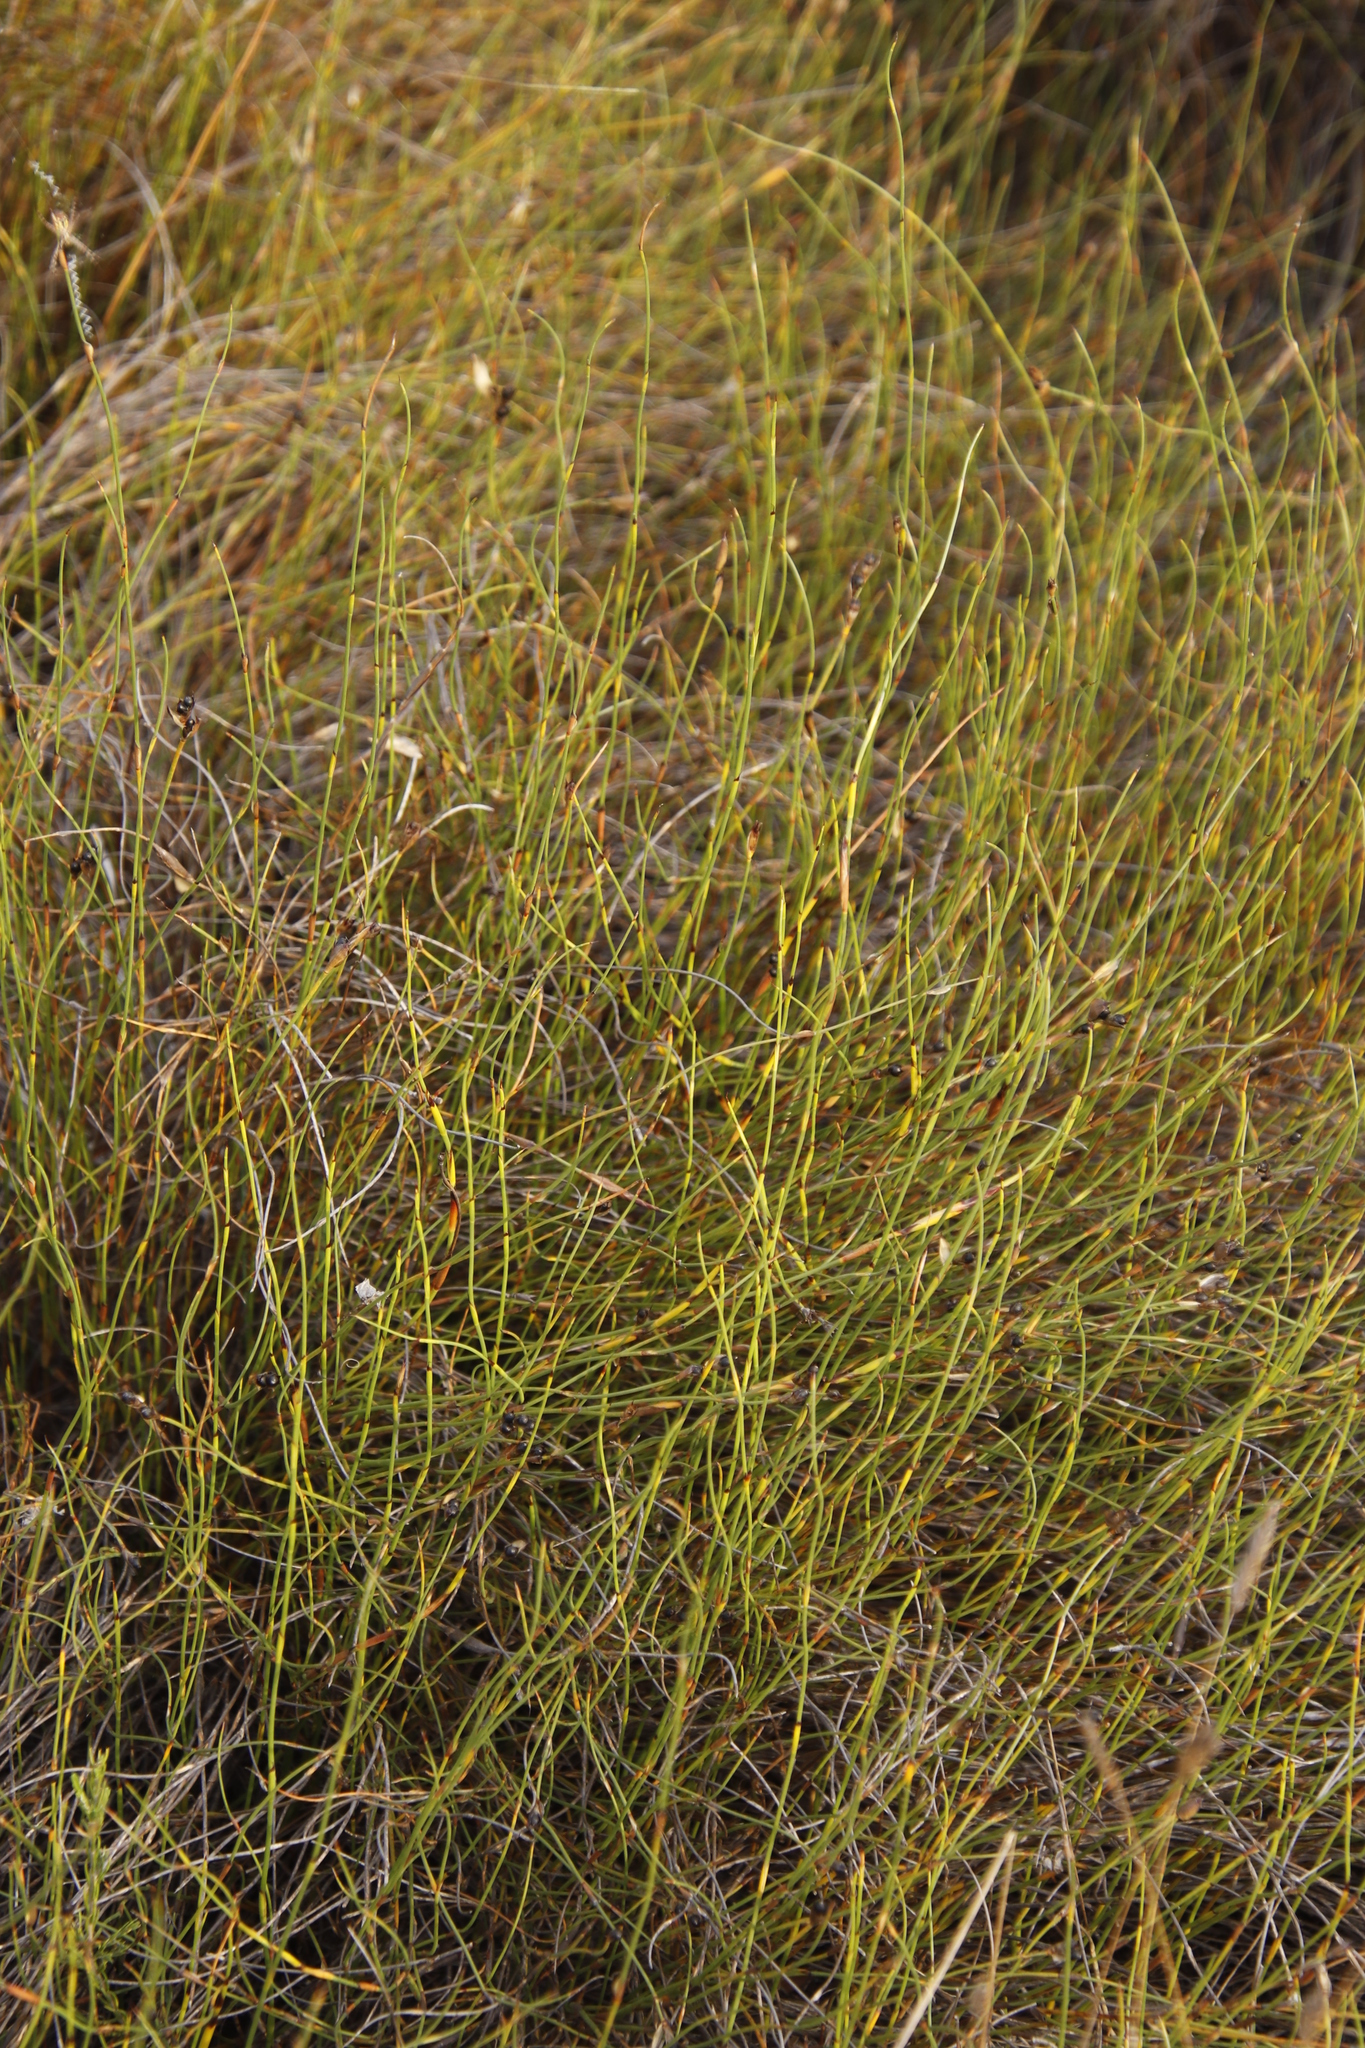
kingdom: Plantae
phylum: Tracheophyta
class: Liliopsida
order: Poales
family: Restionaceae
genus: Willdenowia
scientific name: Willdenowia sulcata
